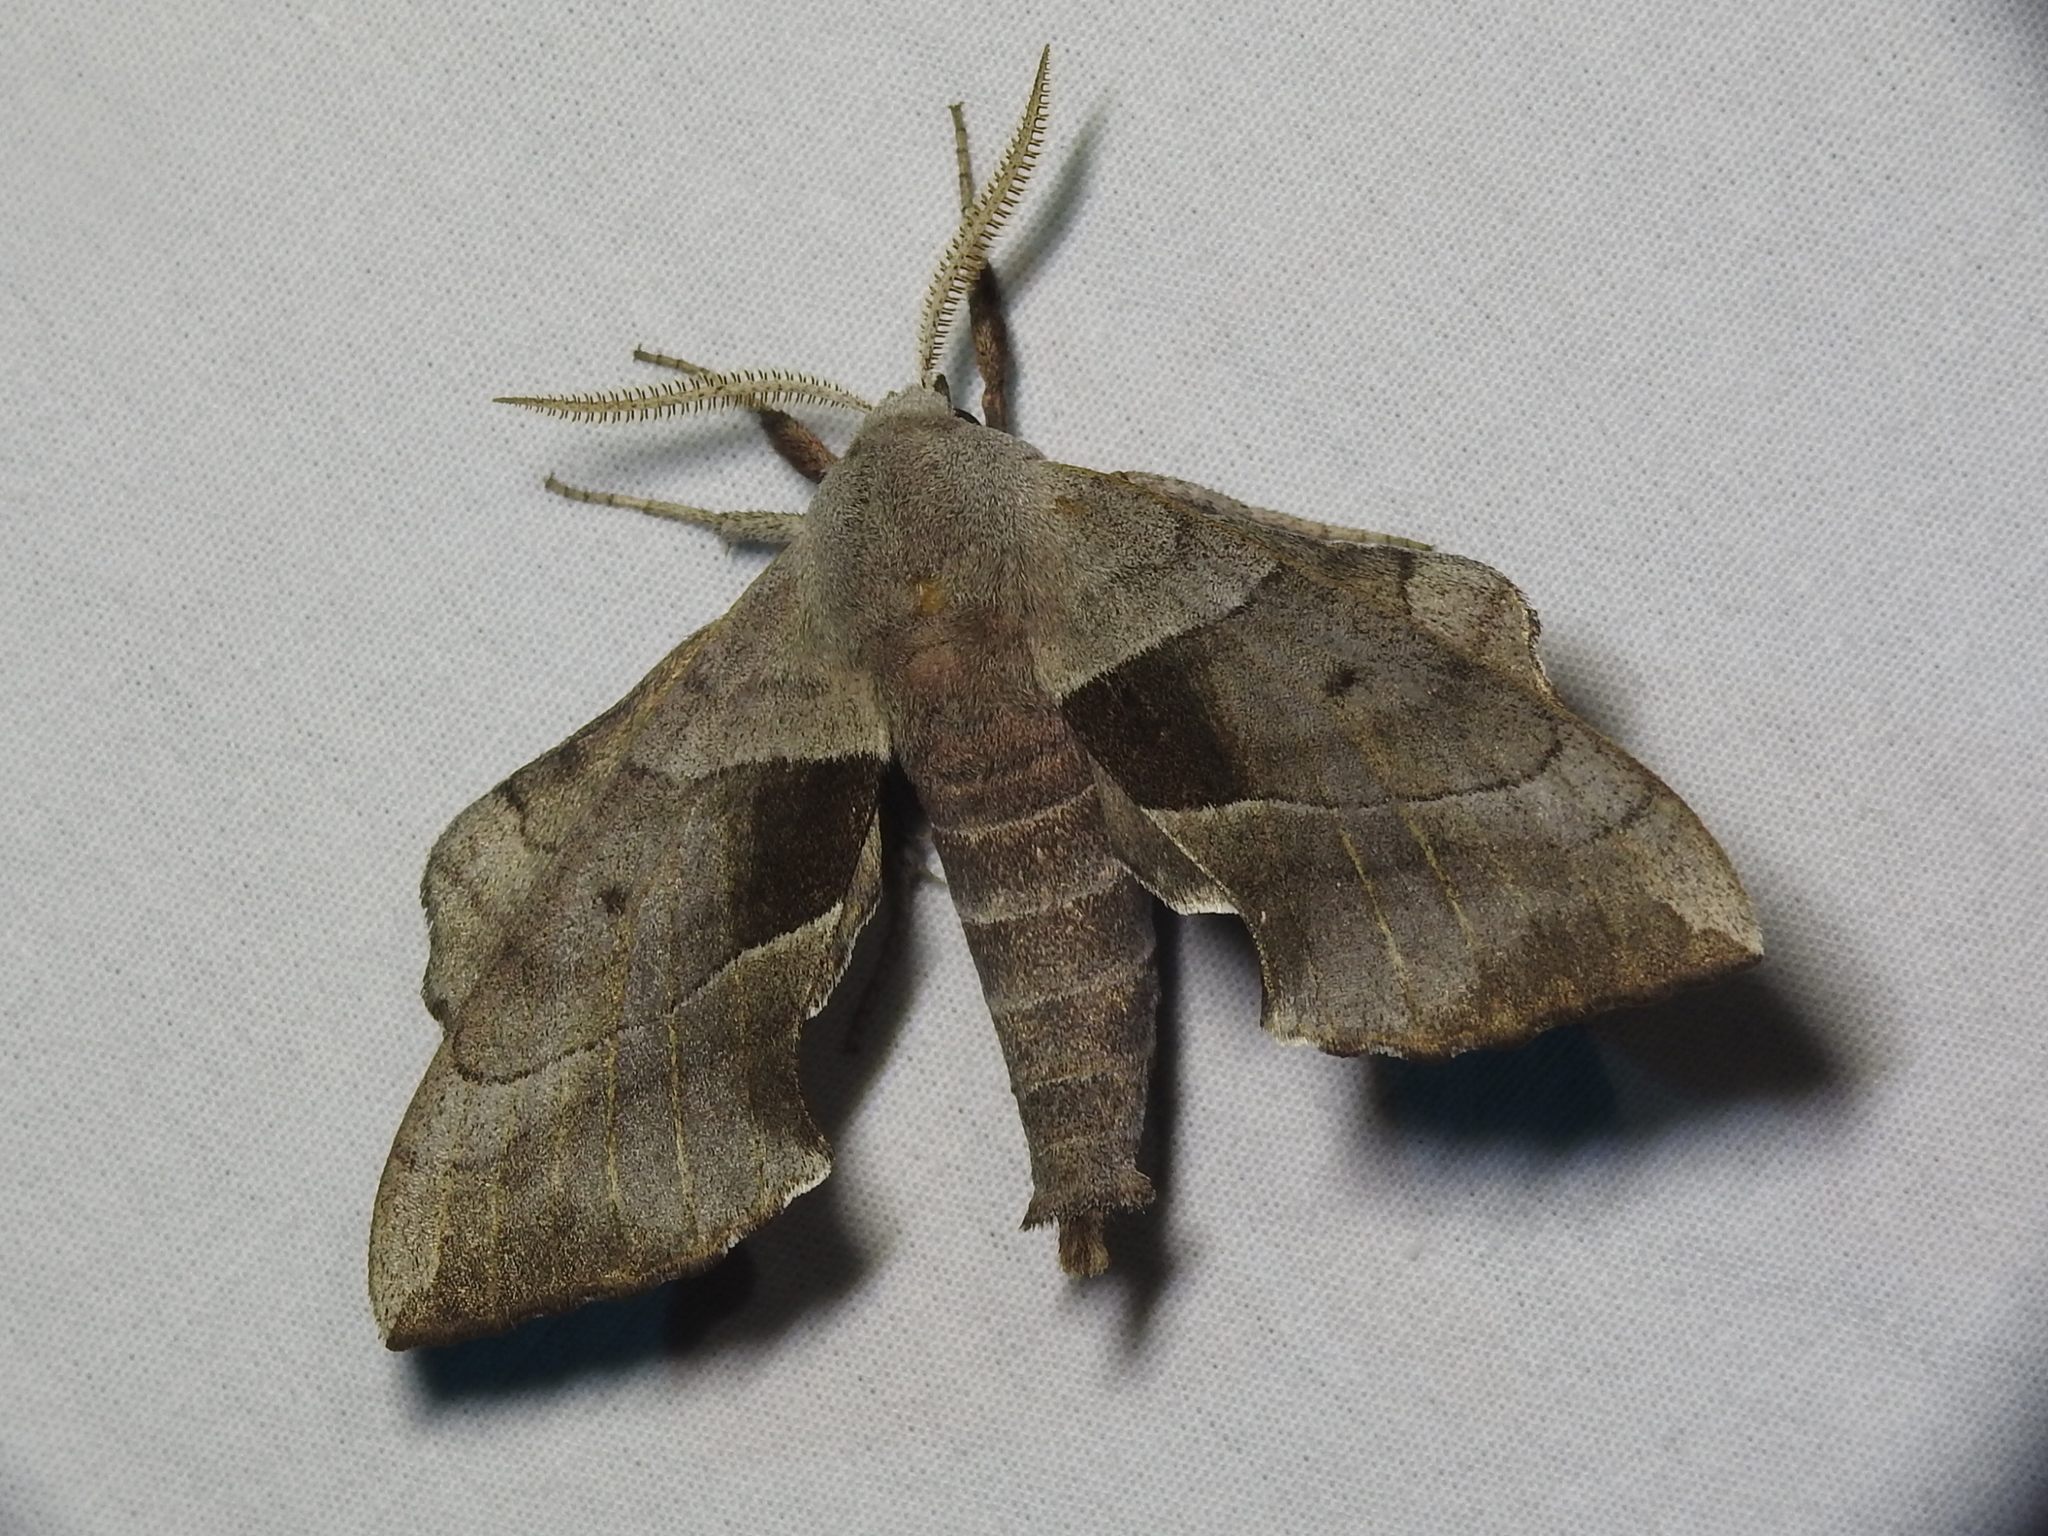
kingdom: Animalia
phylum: Arthropoda
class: Insecta
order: Lepidoptera
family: Sphingidae
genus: Amorpha
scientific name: Amorpha juglandis
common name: Walnut sphinx
